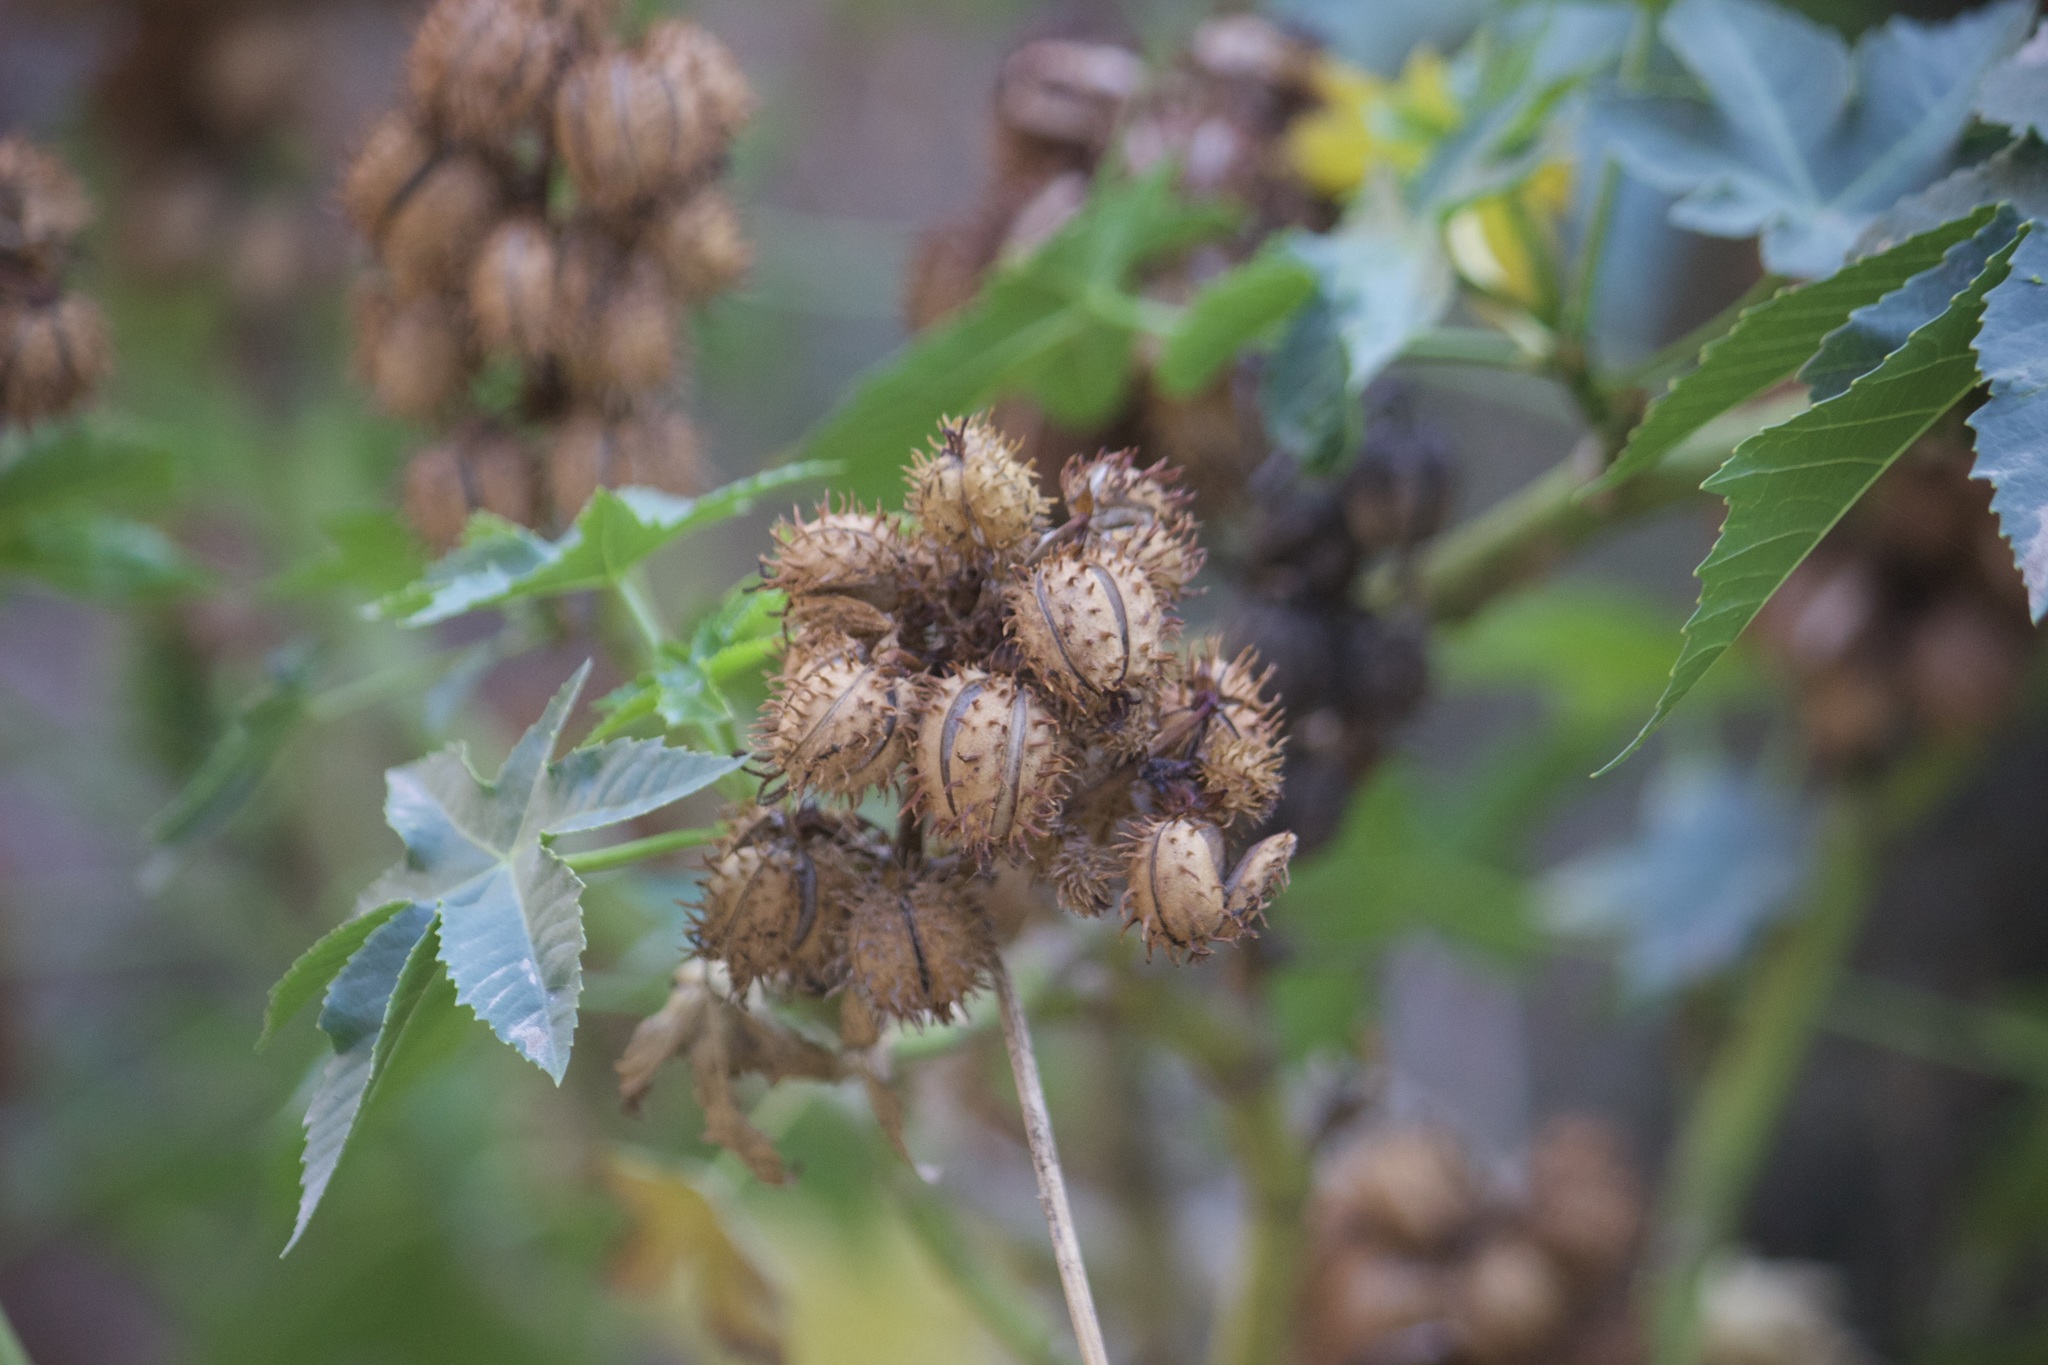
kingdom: Plantae
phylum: Tracheophyta
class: Magnoliopsida
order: Malpighiales
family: Euphorbiaceae
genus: Ricinus
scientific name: Ricinus communis
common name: Castor-oil-plant
